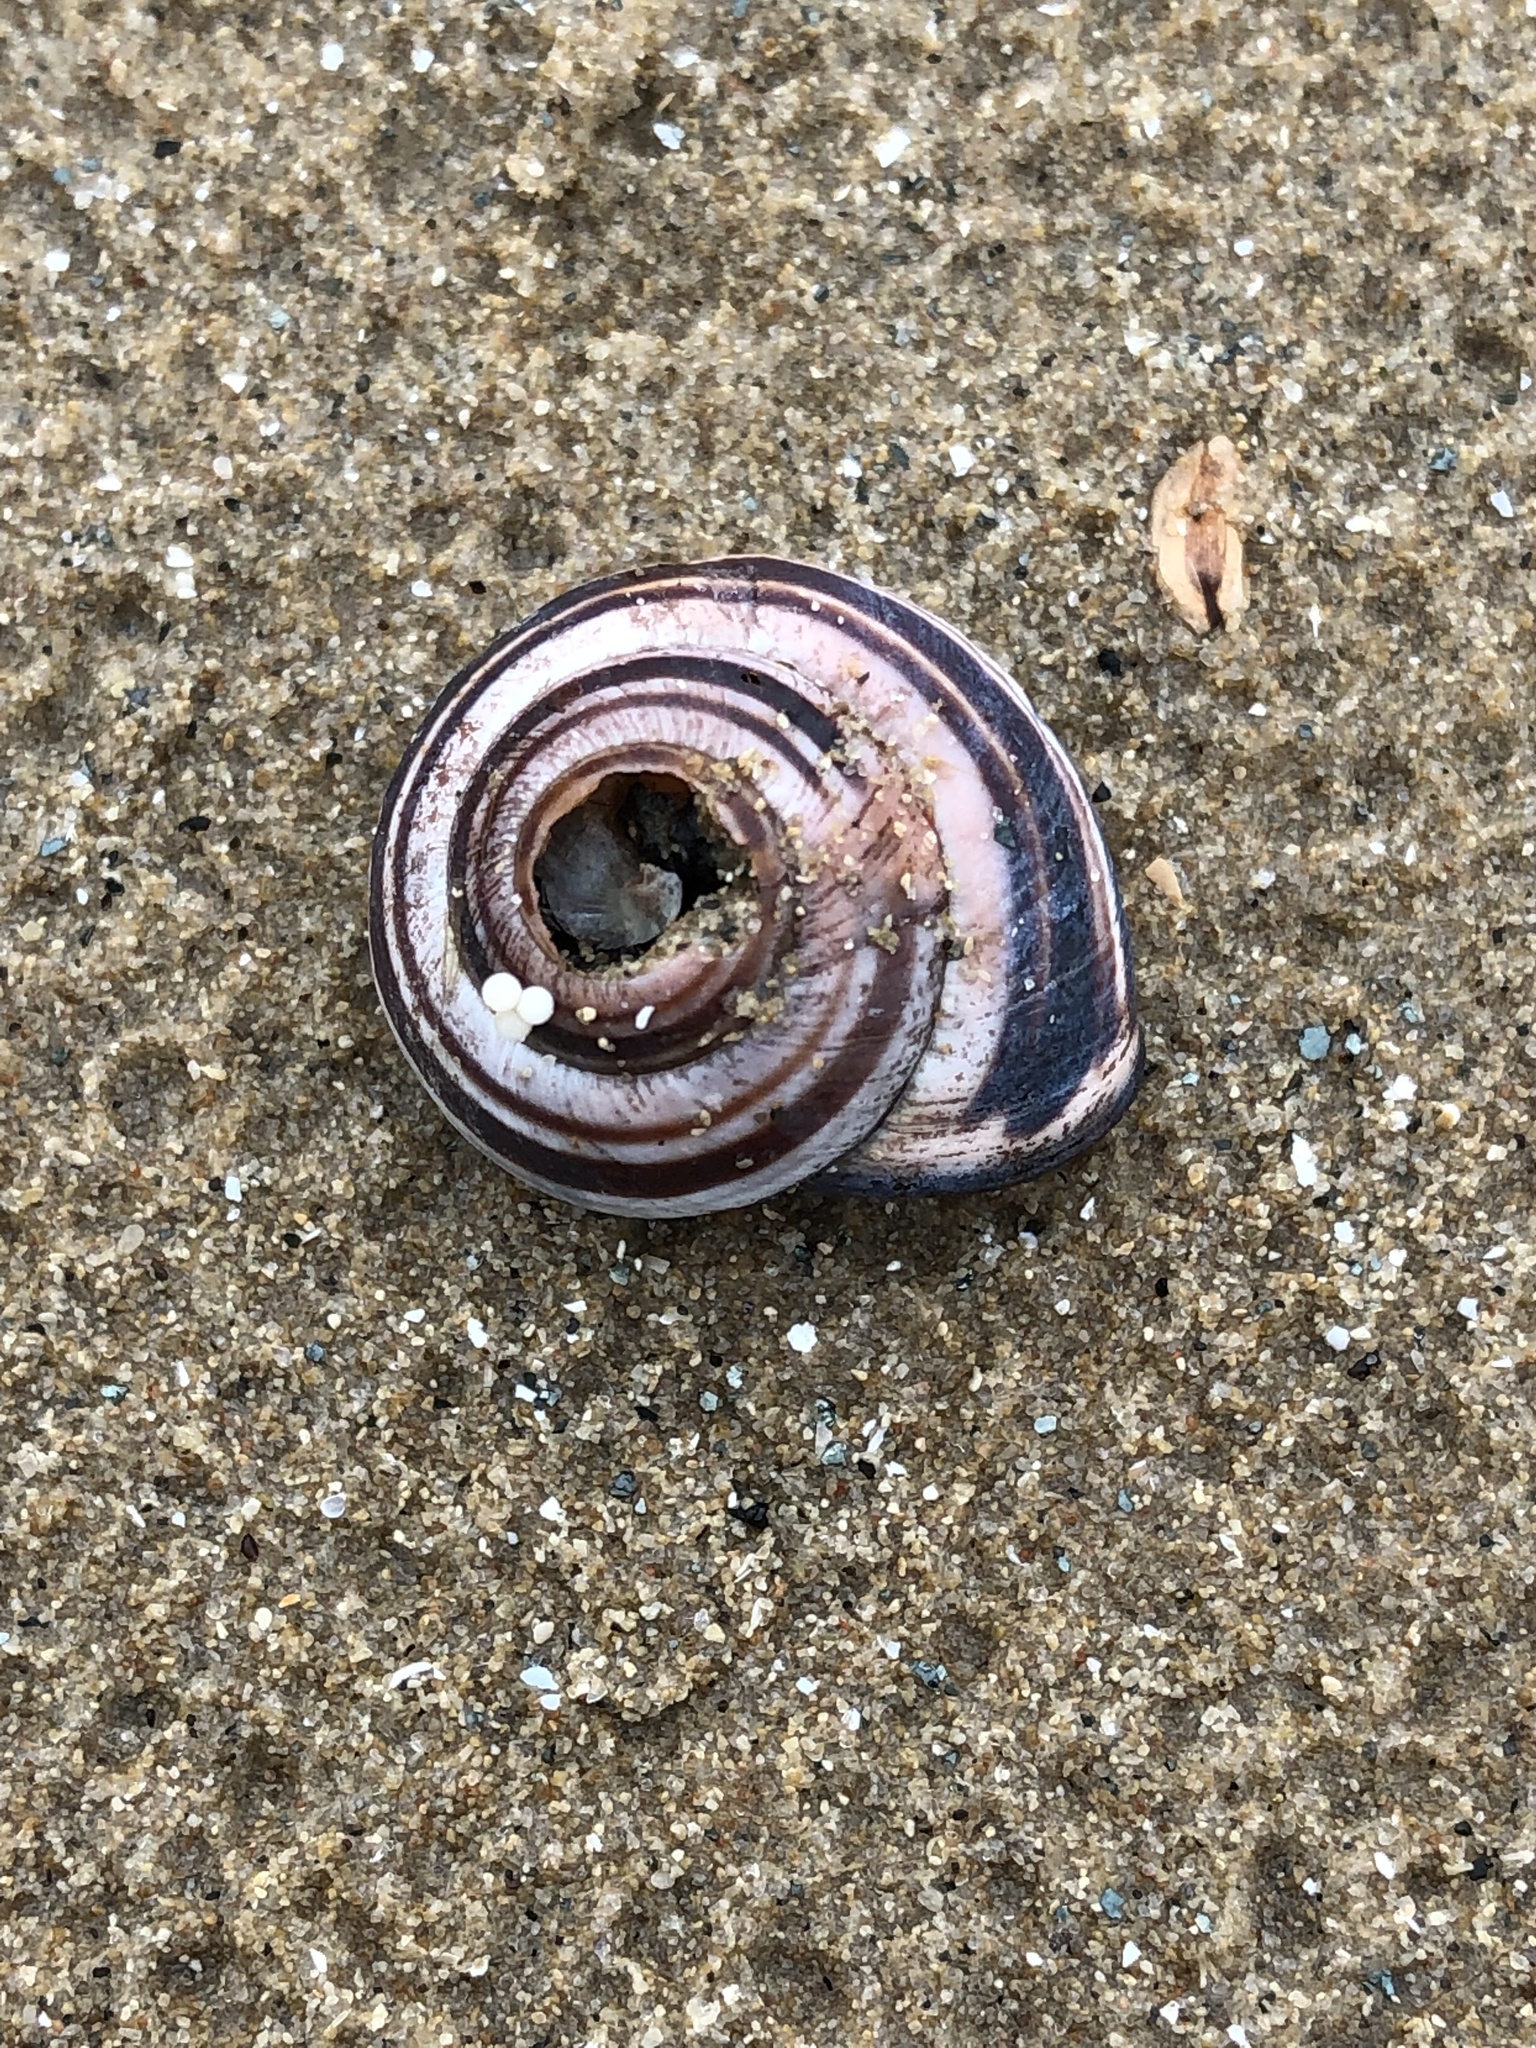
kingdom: Animalia
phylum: Mollusca
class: Gastropoda
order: Stylommatophora
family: Helicidae
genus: Cepaea
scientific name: Cepaea nemoralis
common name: Grovesnail
